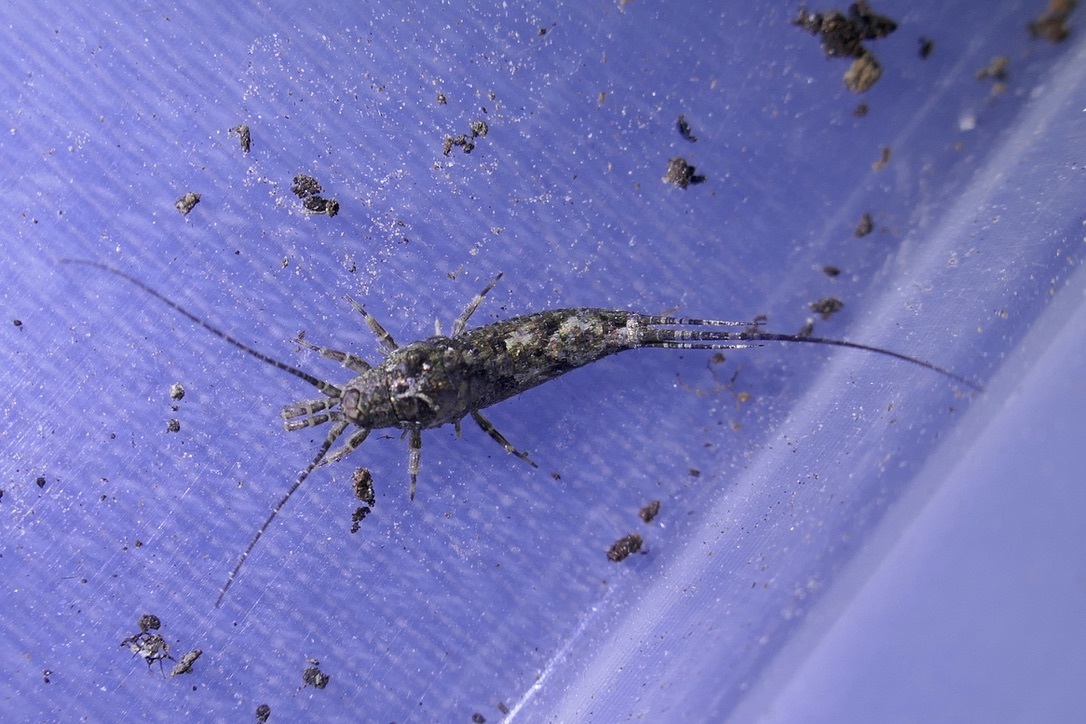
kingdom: Animalia
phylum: Arthropoda
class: Insecta
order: Archaeognatha
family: Machilidae
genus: Lepismachilis
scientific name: Lepismachilis y-signata
